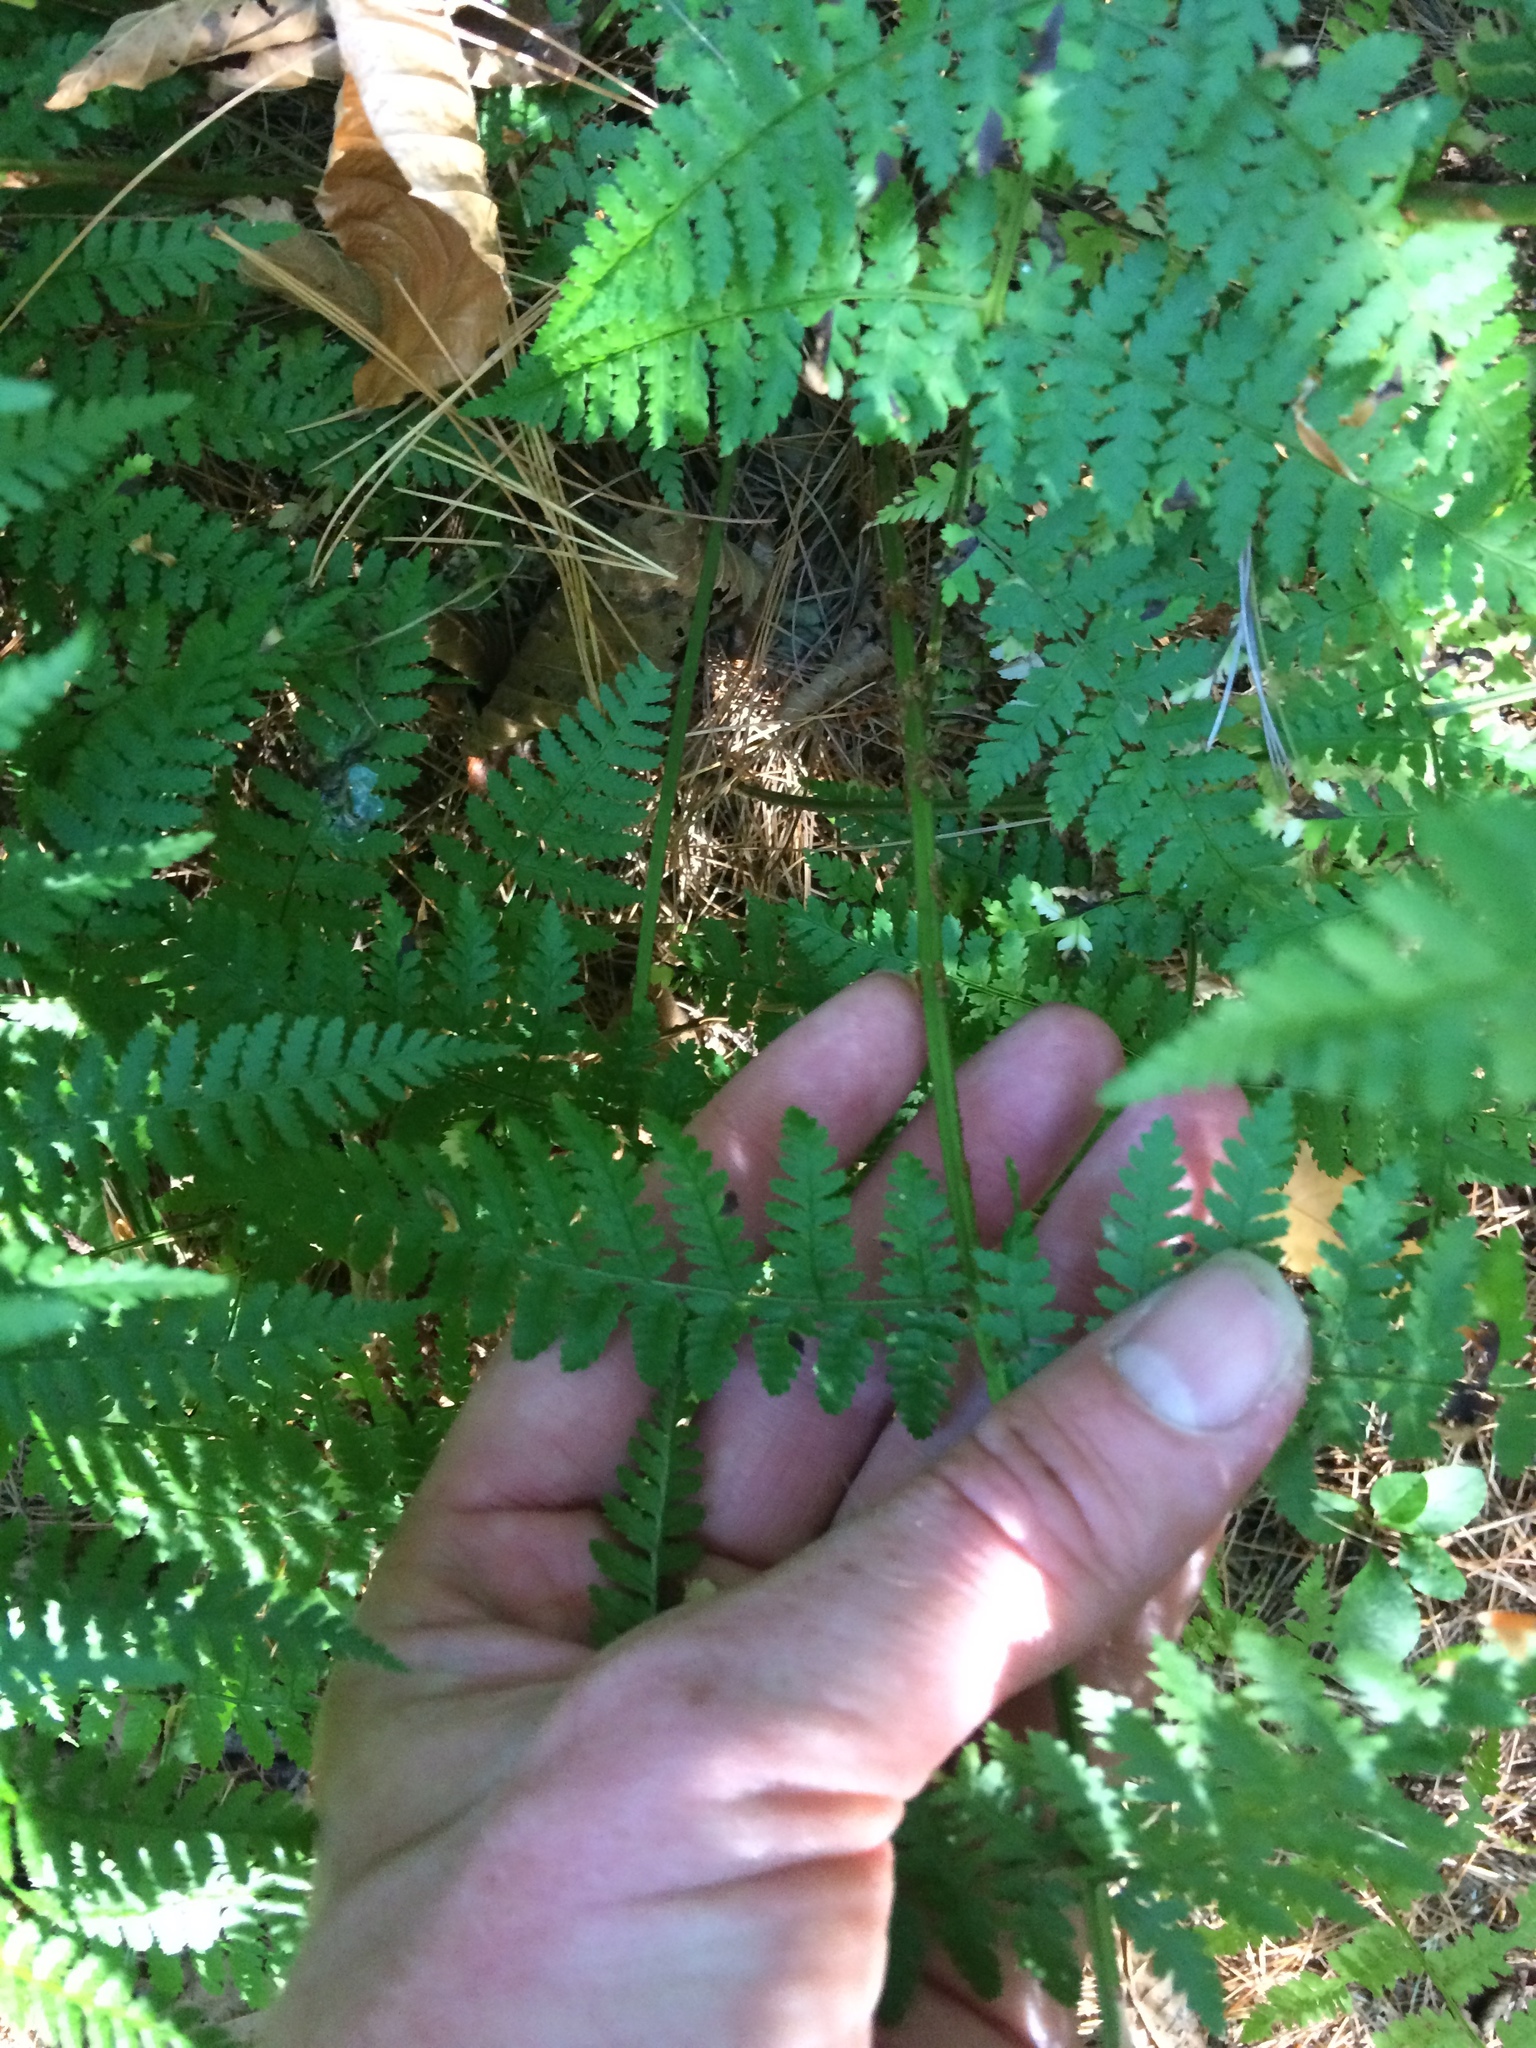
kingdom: Plantae
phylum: Tracheophyta
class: Polypodiopsida
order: Polypodiales
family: Dryopteridaceae
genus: Dryopteris
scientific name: Dryopteris intermedia
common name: Evergreen wood fern
